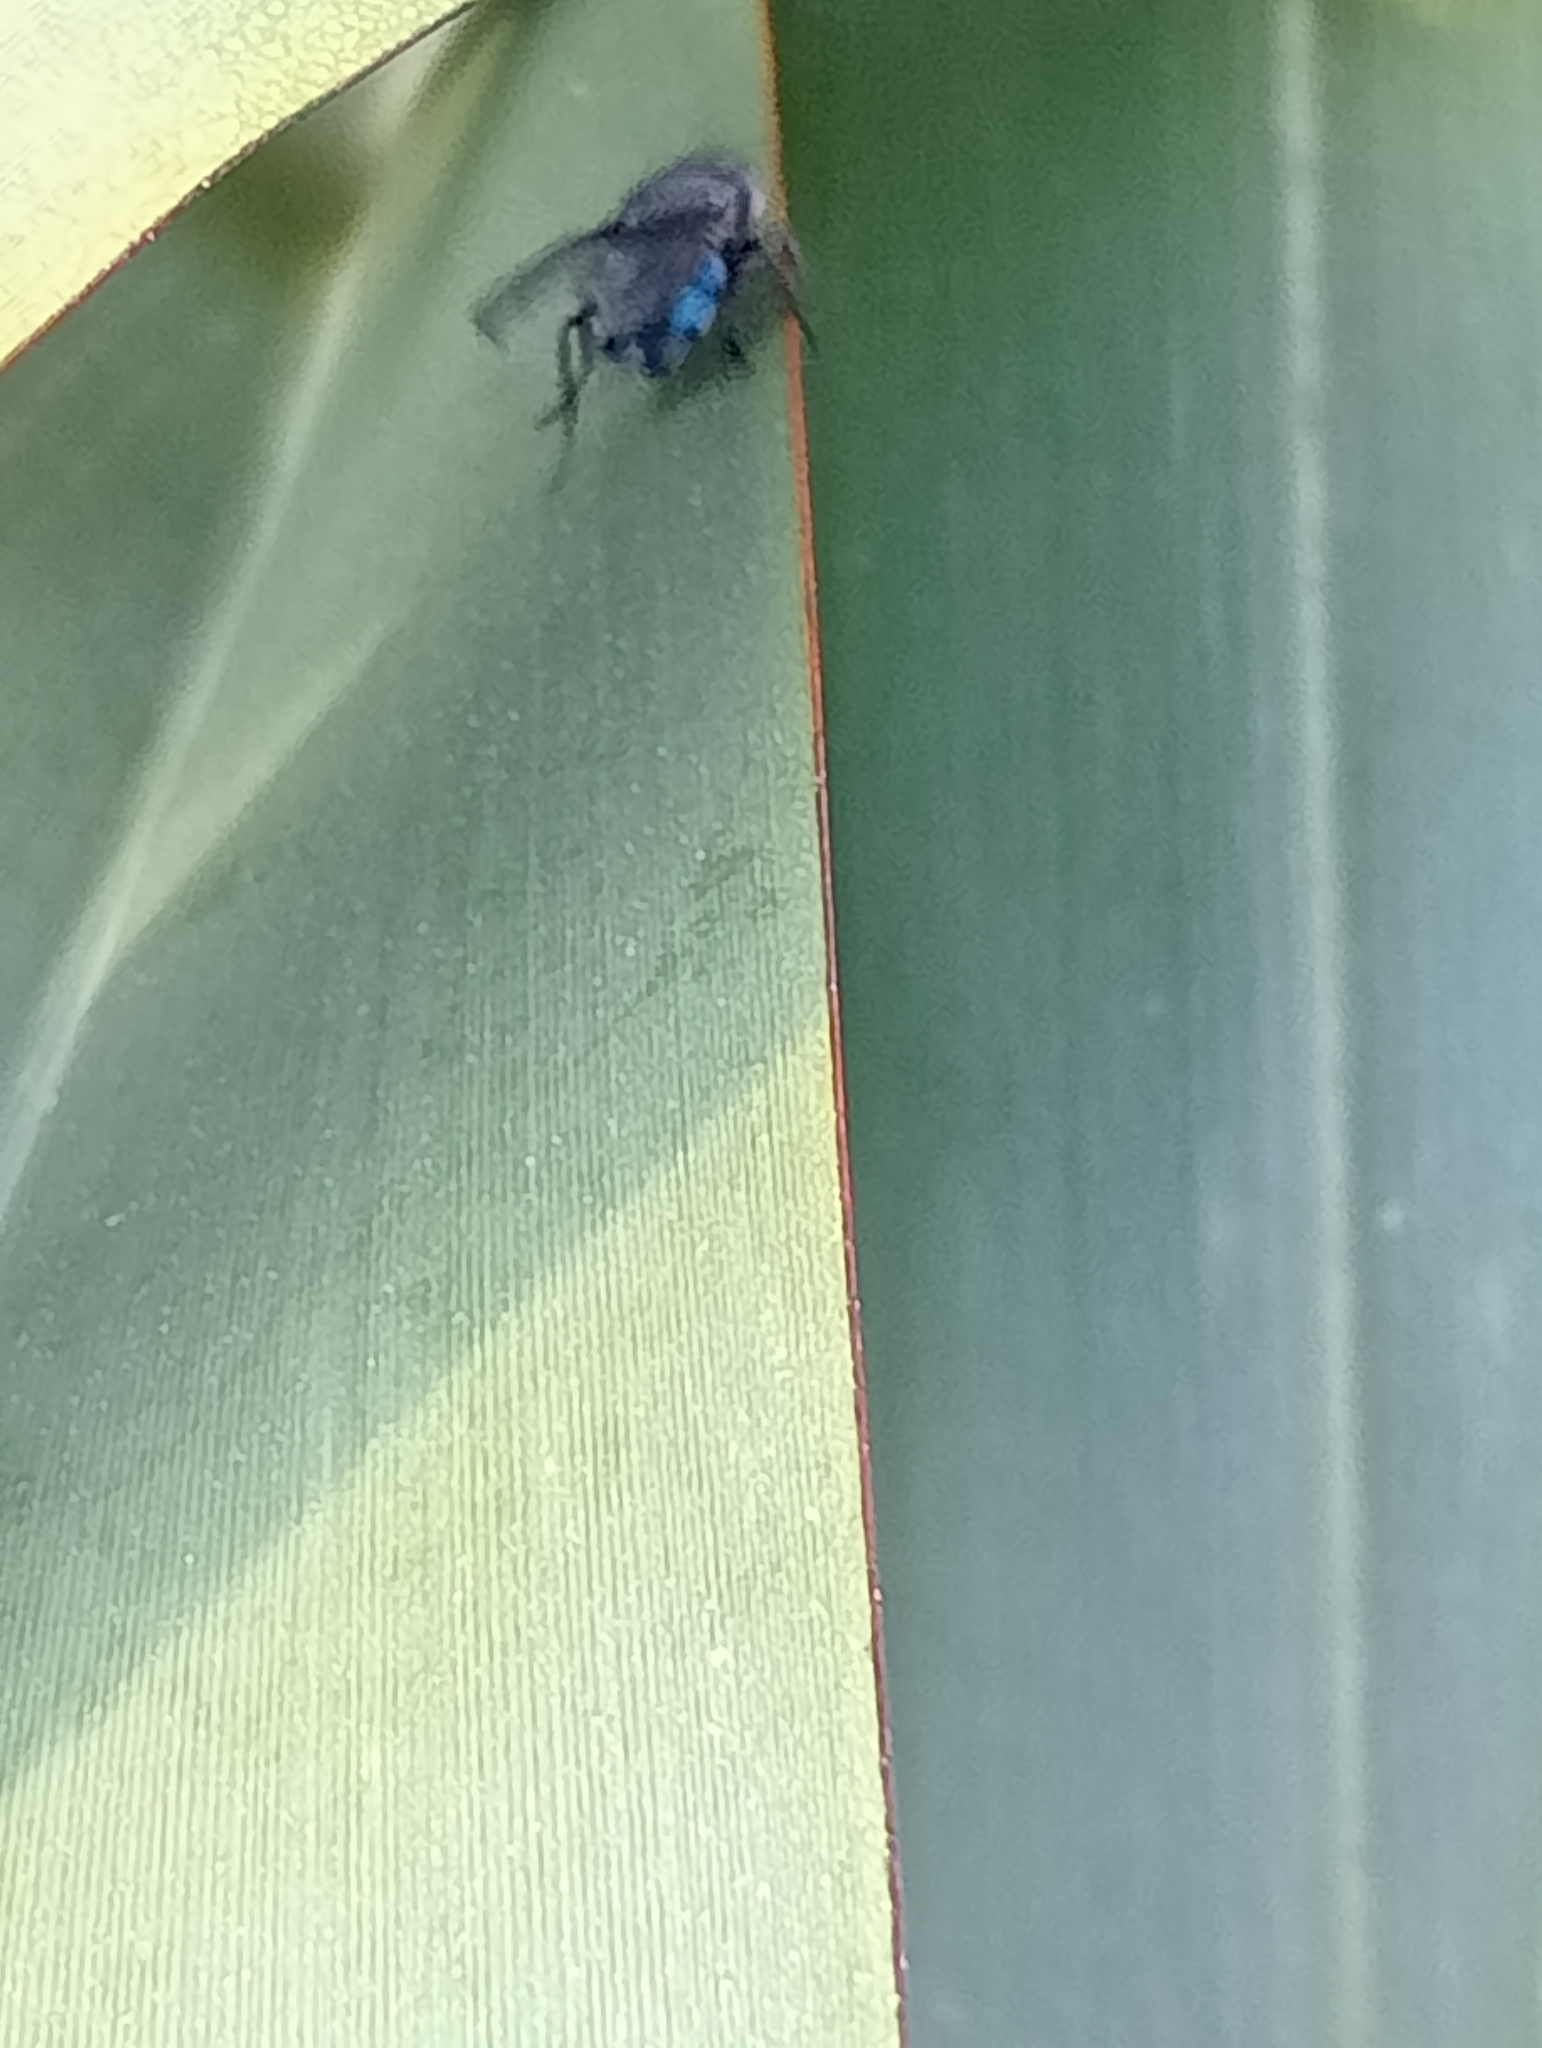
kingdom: Animalia
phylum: Arthropoda
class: Insecta
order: Diptera
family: Calliphoridae
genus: Calliphora
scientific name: Calliphora vicina
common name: Common blow flie
